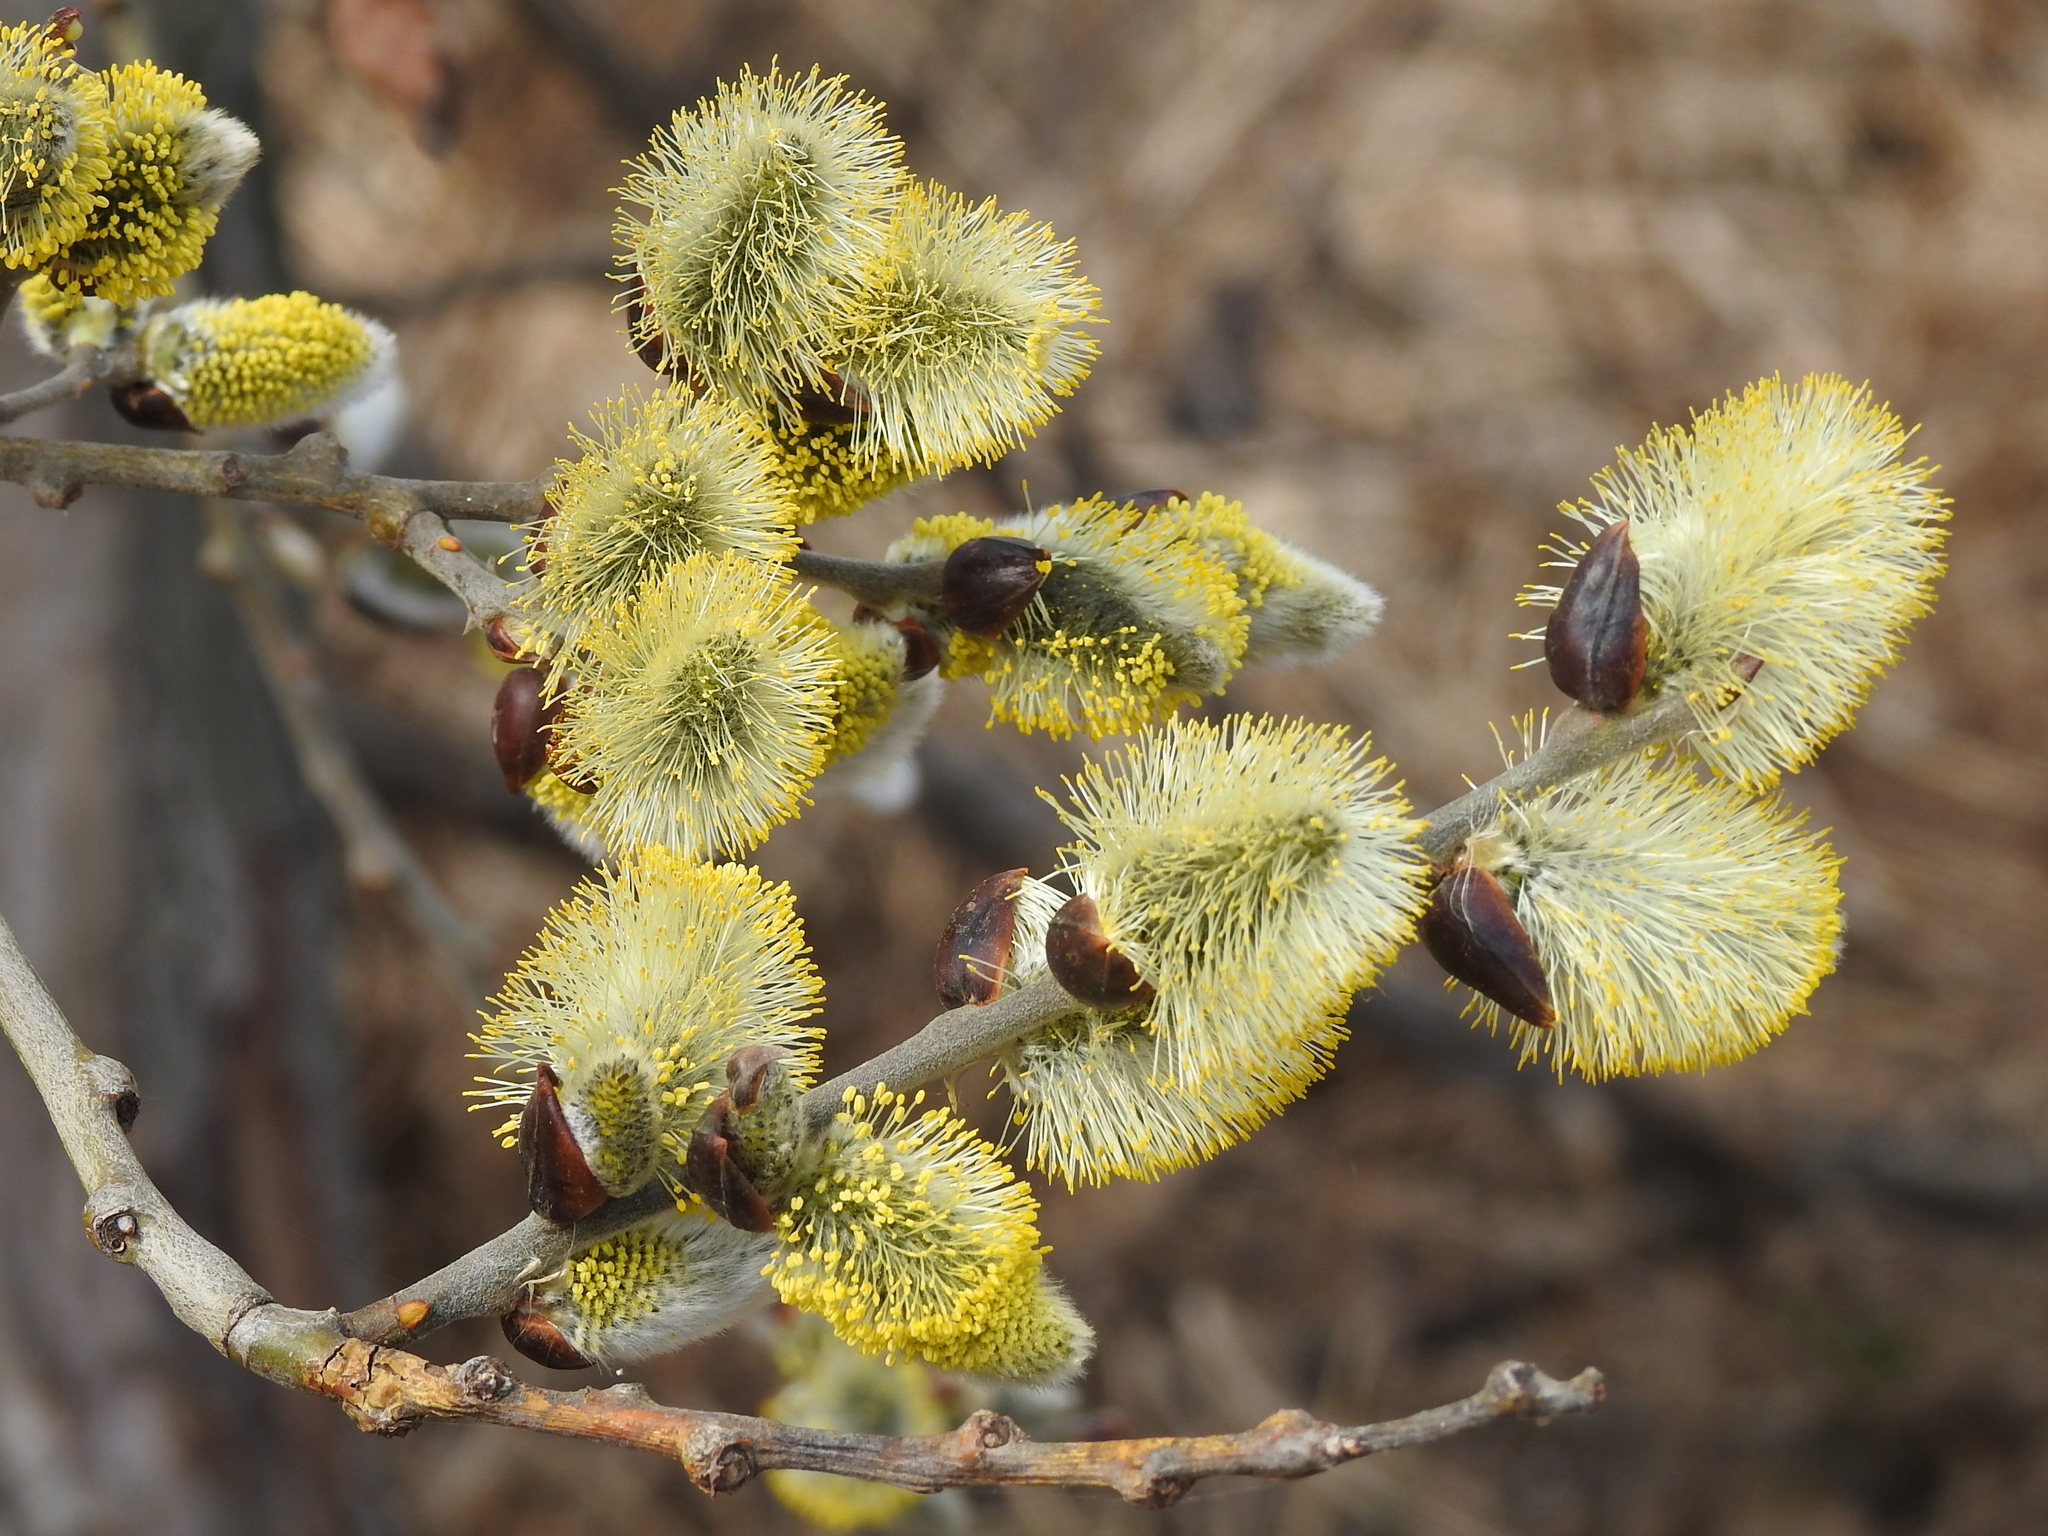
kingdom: Plantae
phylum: Tracheophyta
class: Magnoliopsida
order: Malpighiales
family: Salicaceae
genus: Salix
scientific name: Salix caprea
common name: Goat willow
